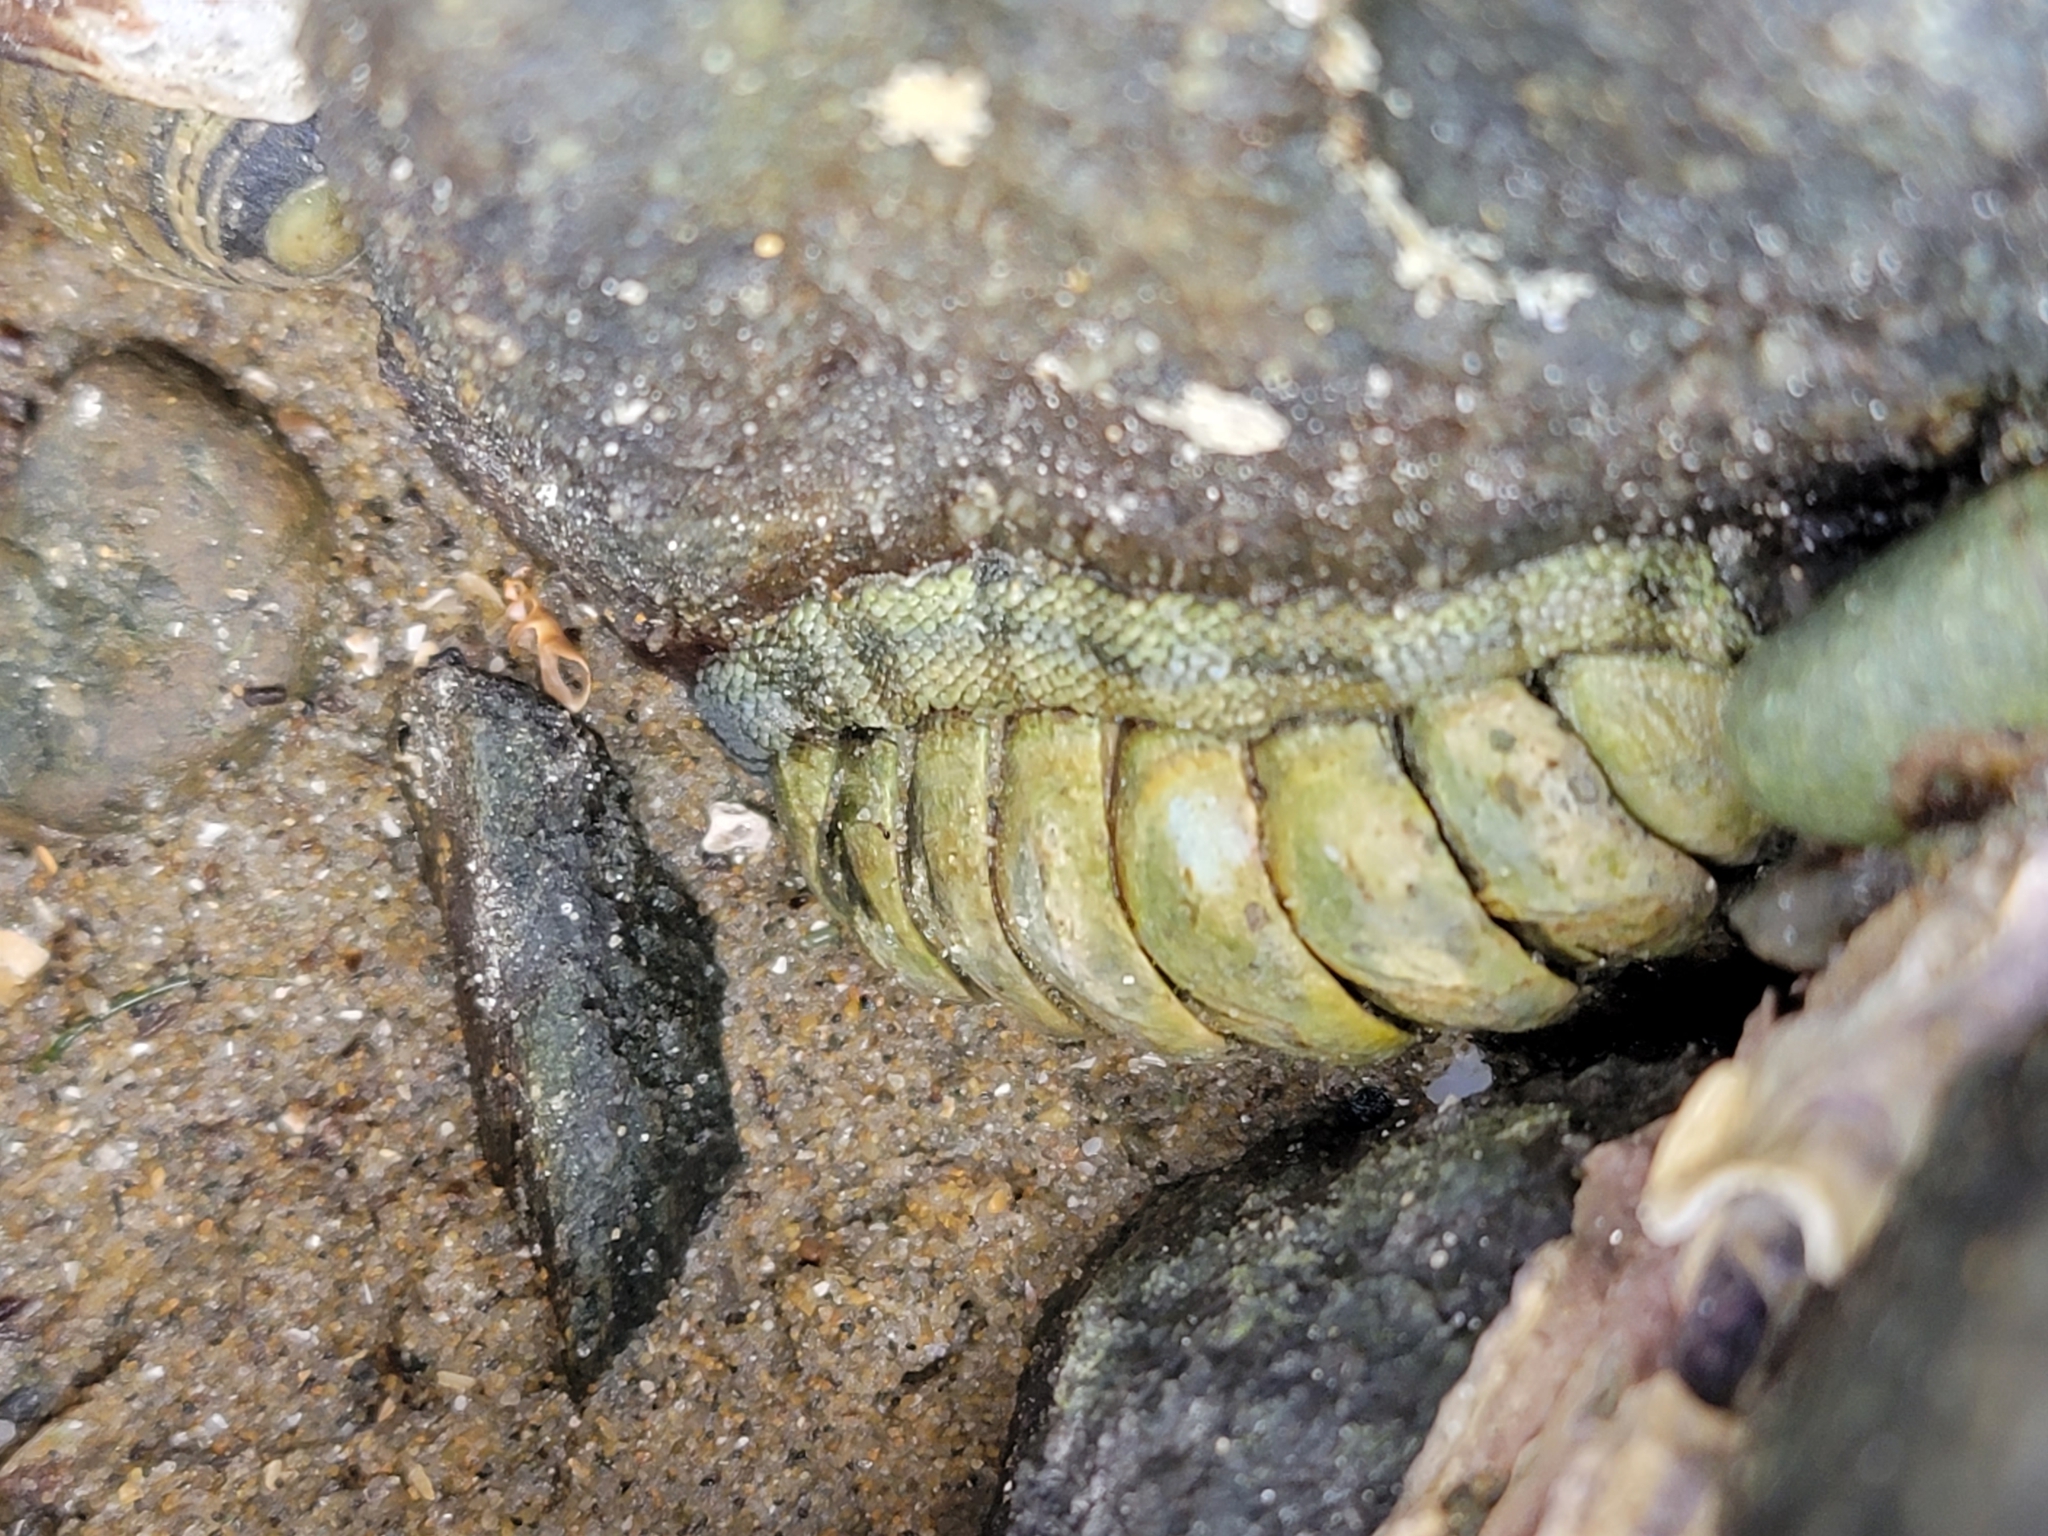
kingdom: Animalia
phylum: Mollusca
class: Polyplacophora
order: Chitonida
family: Chitonidae
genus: Sypharochiton
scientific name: Sypharochiton pelliserpentis
